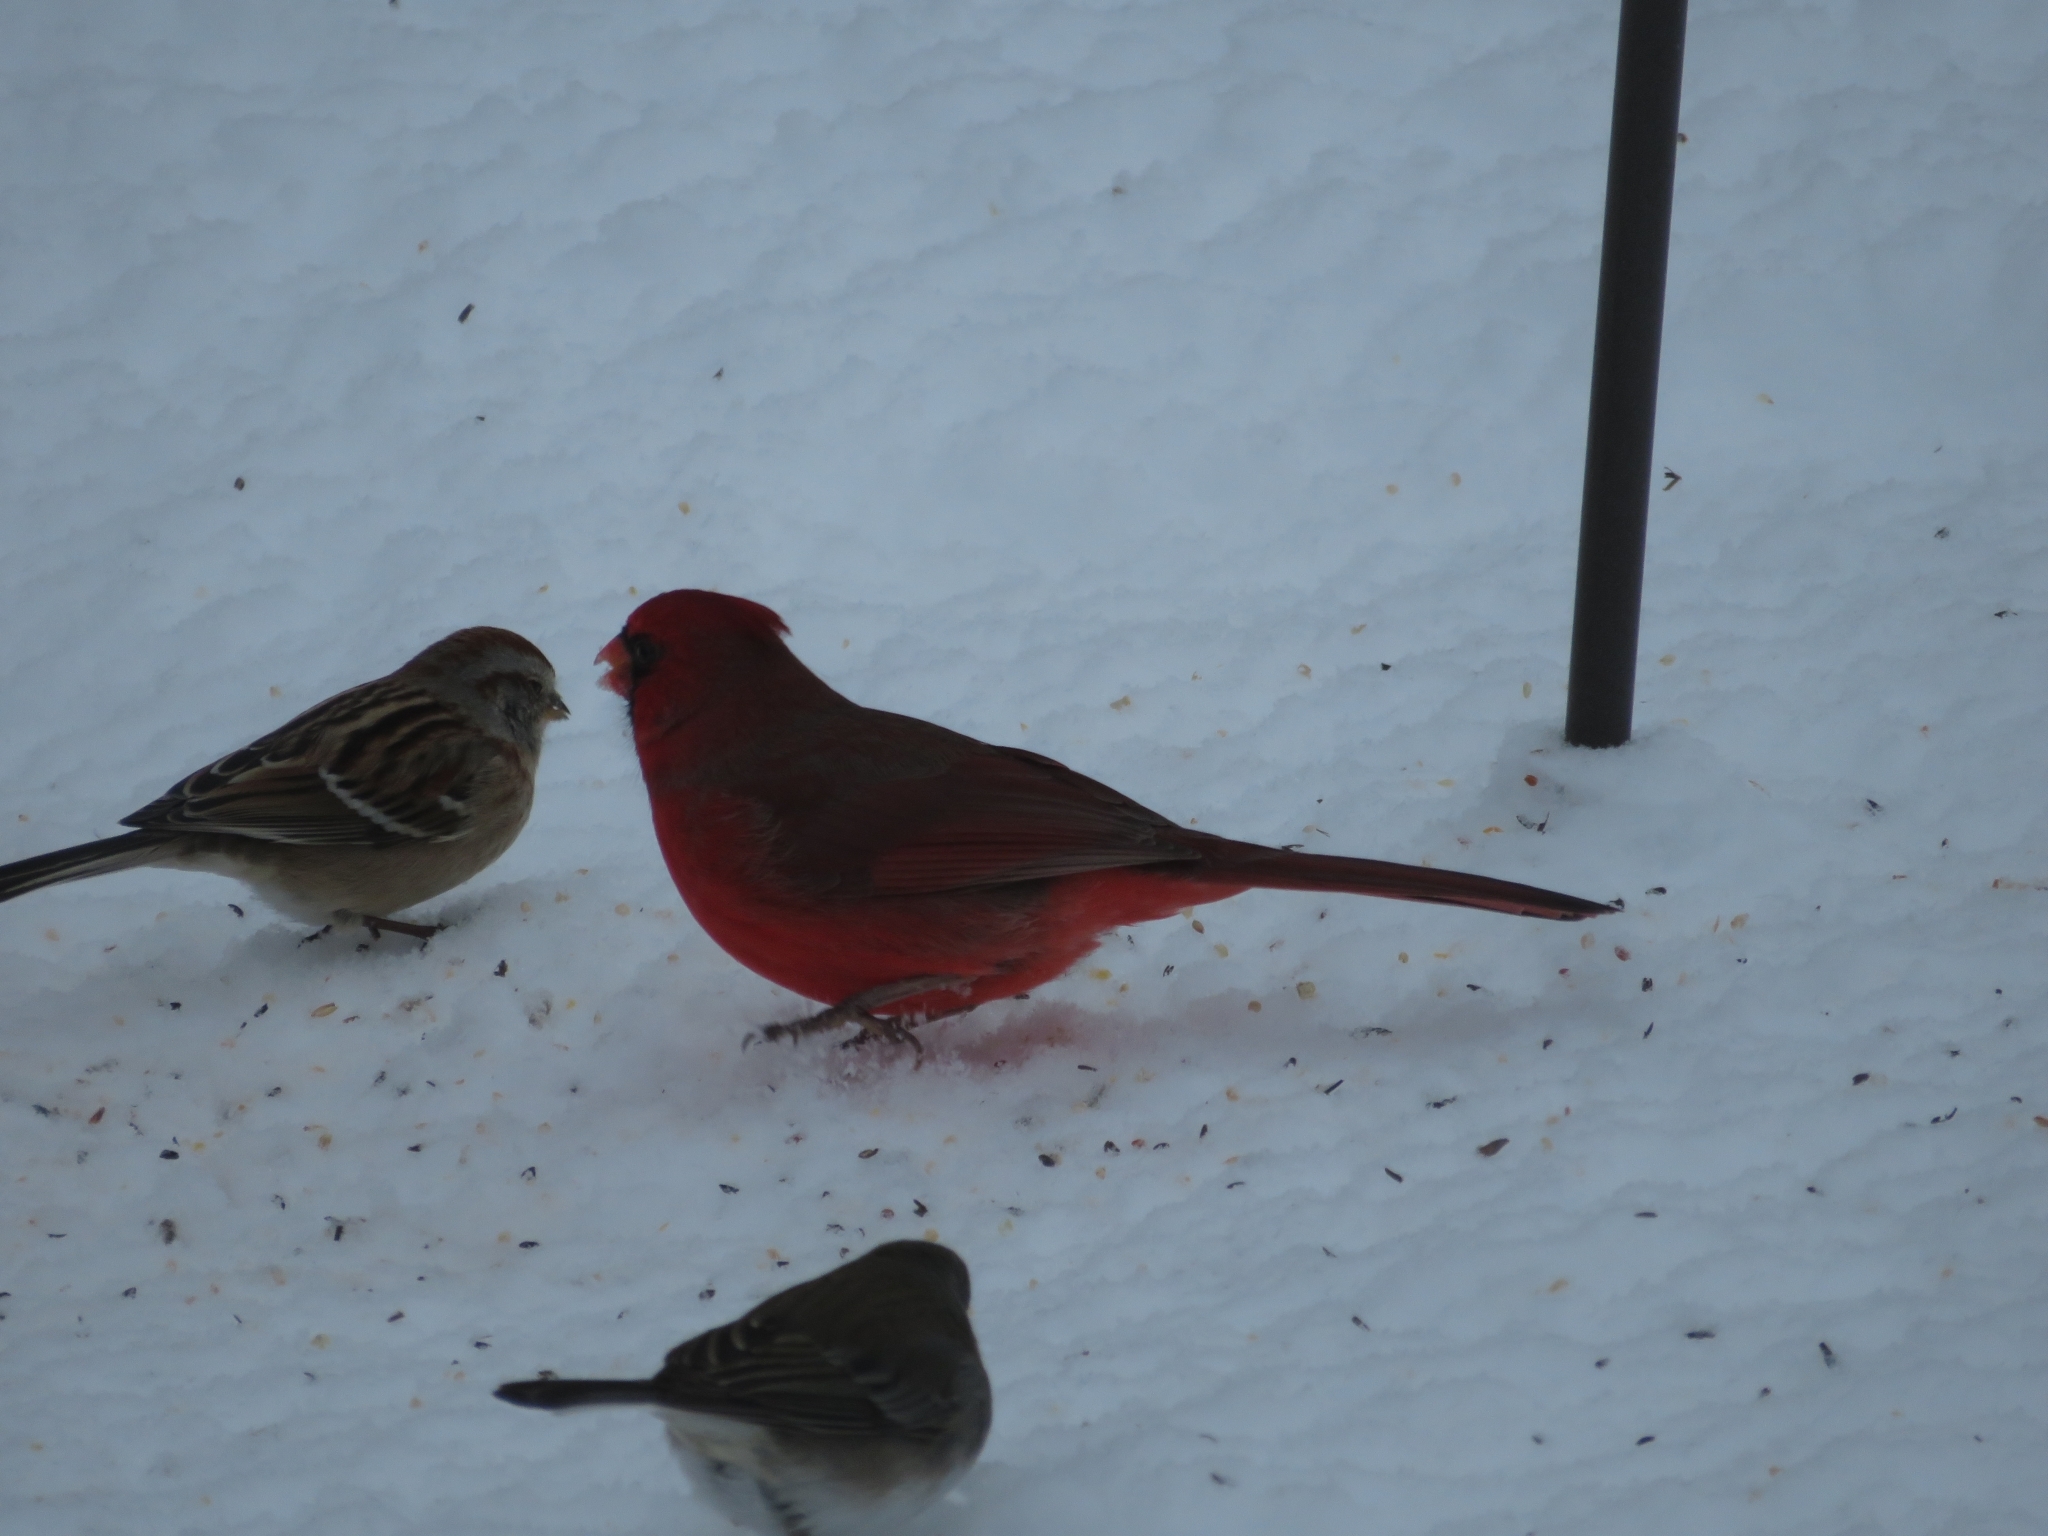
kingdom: Animalia
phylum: Chordata
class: Aves
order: Passeriformes
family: Cardinalidae
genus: Cardinalis
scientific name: Cardinalis cardinalis
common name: Northern cardinal
